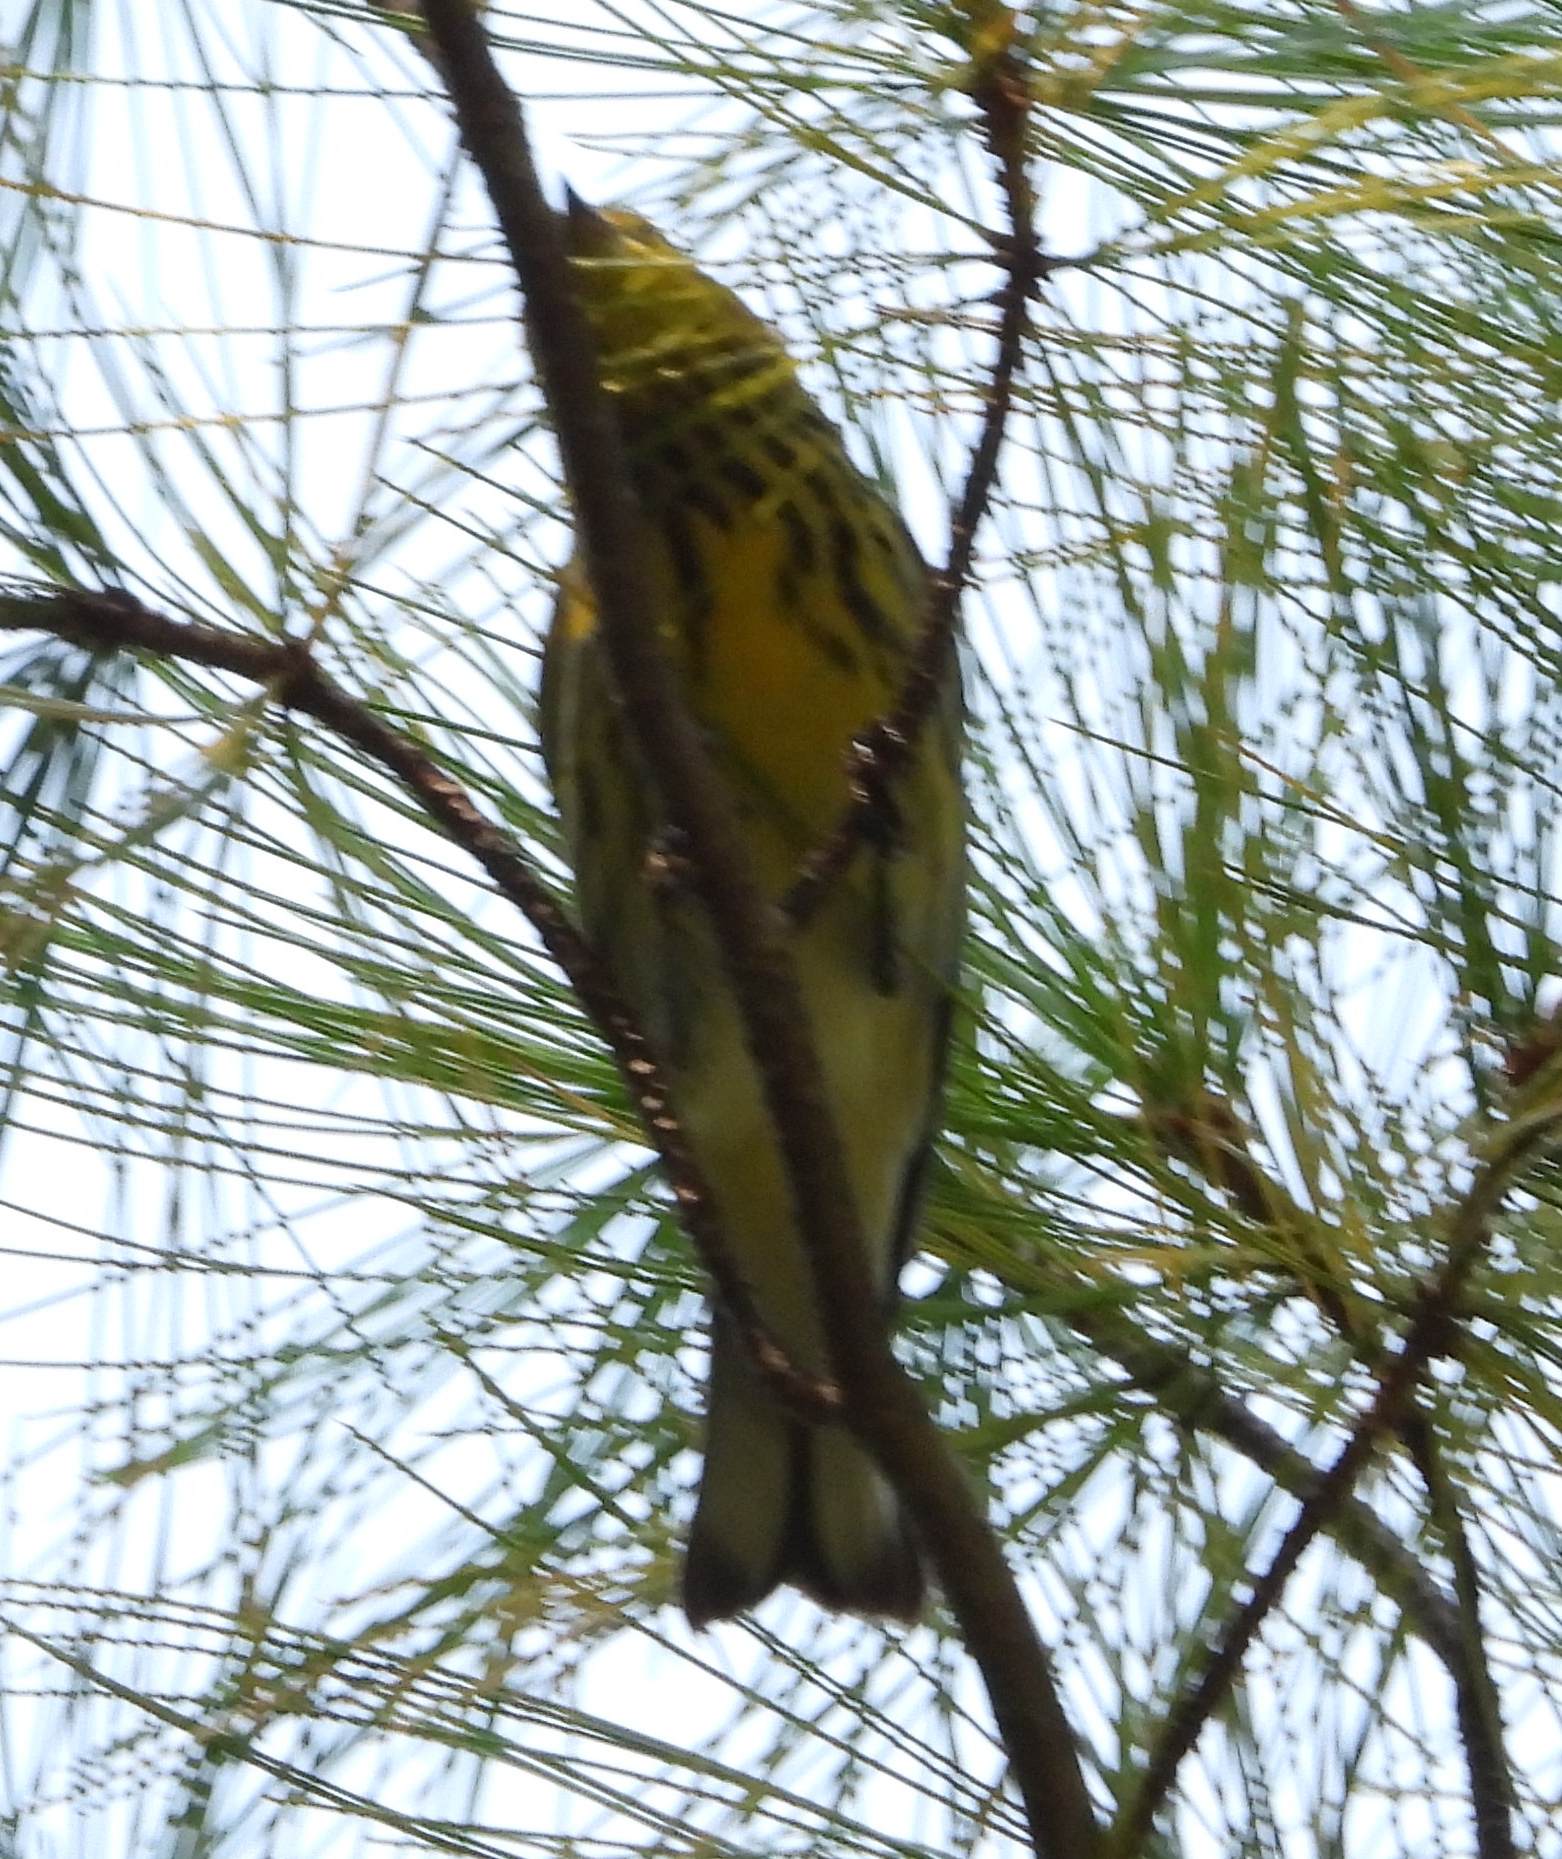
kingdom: Animalia
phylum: Chordata
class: Aves
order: Passeriformes
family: Parulidae
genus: Setophaga
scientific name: Setophaga tigrina
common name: Cape may warbler
